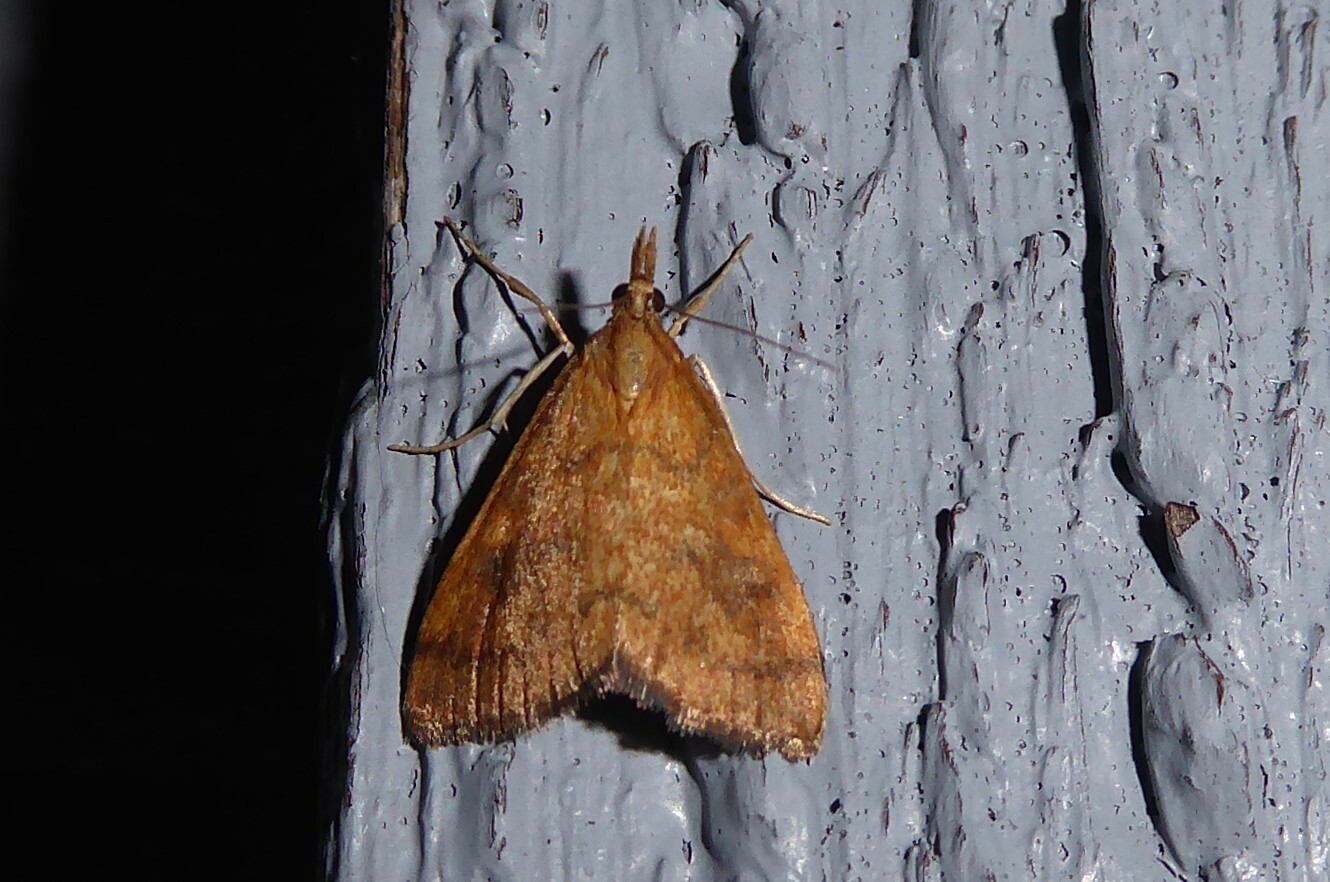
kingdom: Animalia
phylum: Arthropoda
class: Insecta
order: Lepidoptera
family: Crambidae
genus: Udea
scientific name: Udea Mnesictena flavidalis
